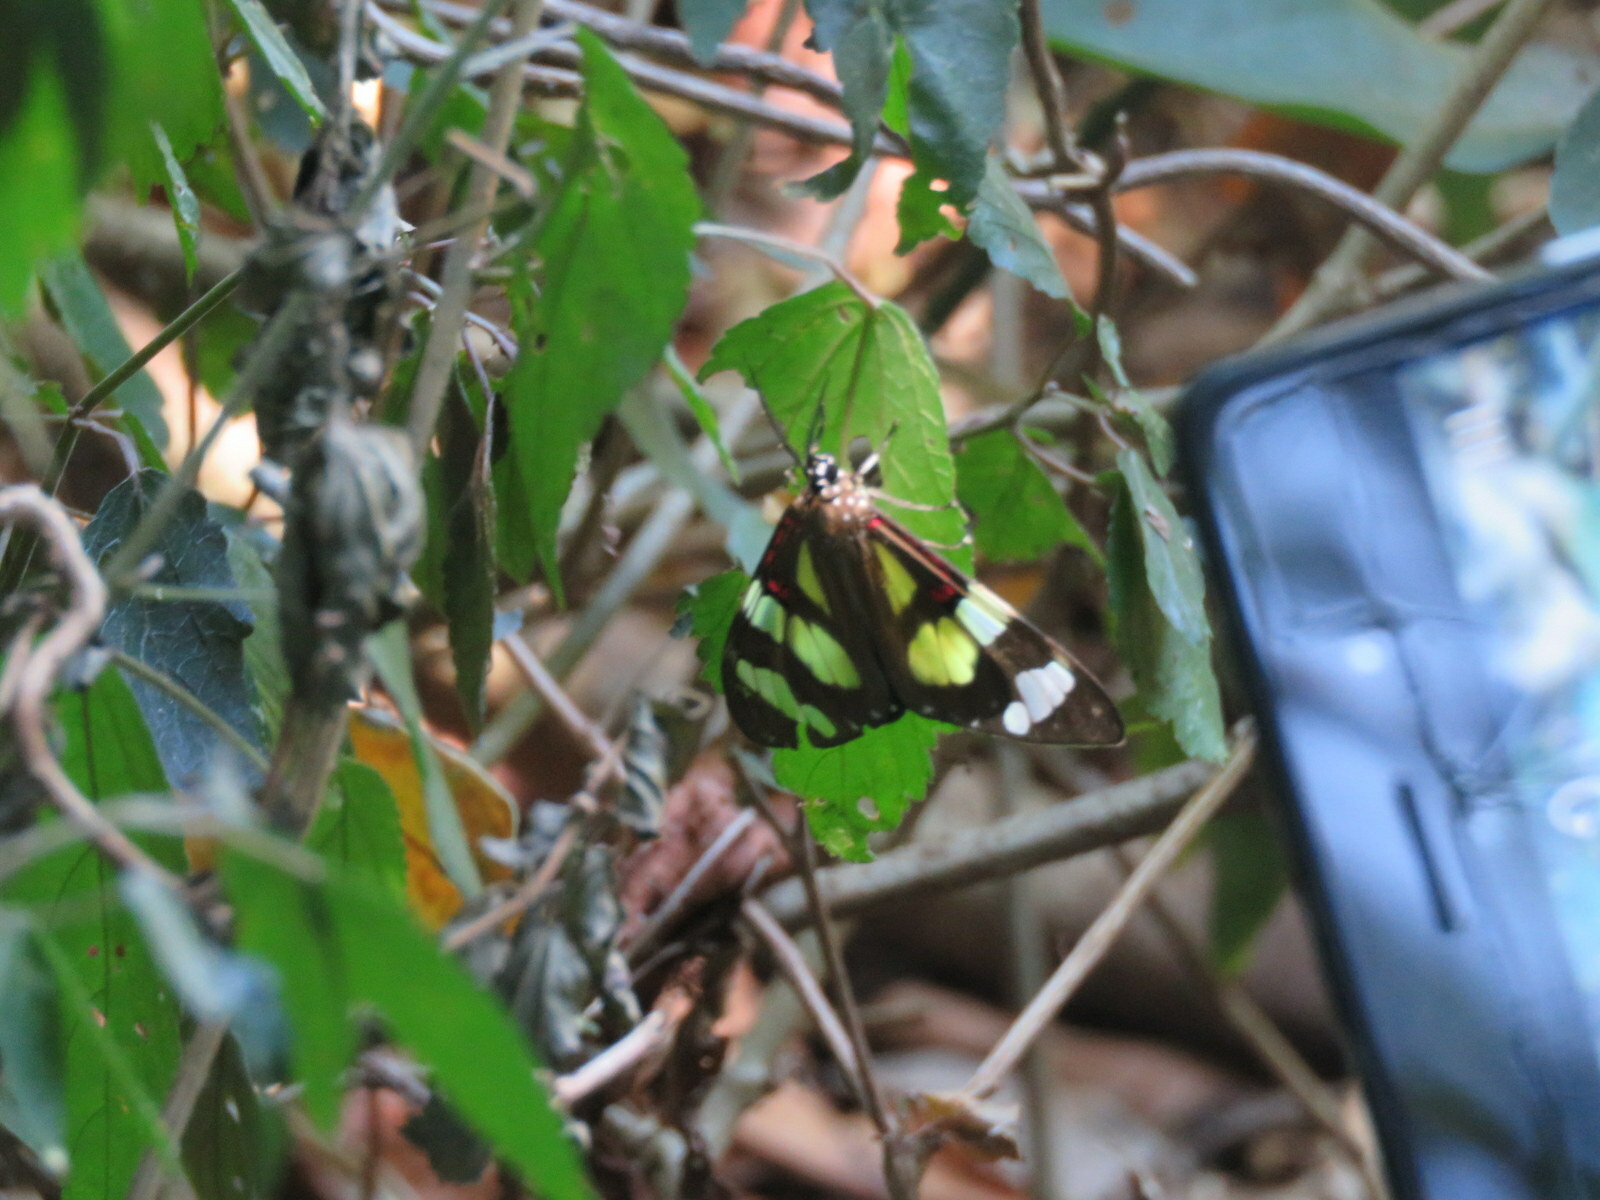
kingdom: Animalia
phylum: Arthropoda
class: Insecta
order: Lepidoptera
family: Erebidae
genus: Phaloe
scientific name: Phaloe cruenta
